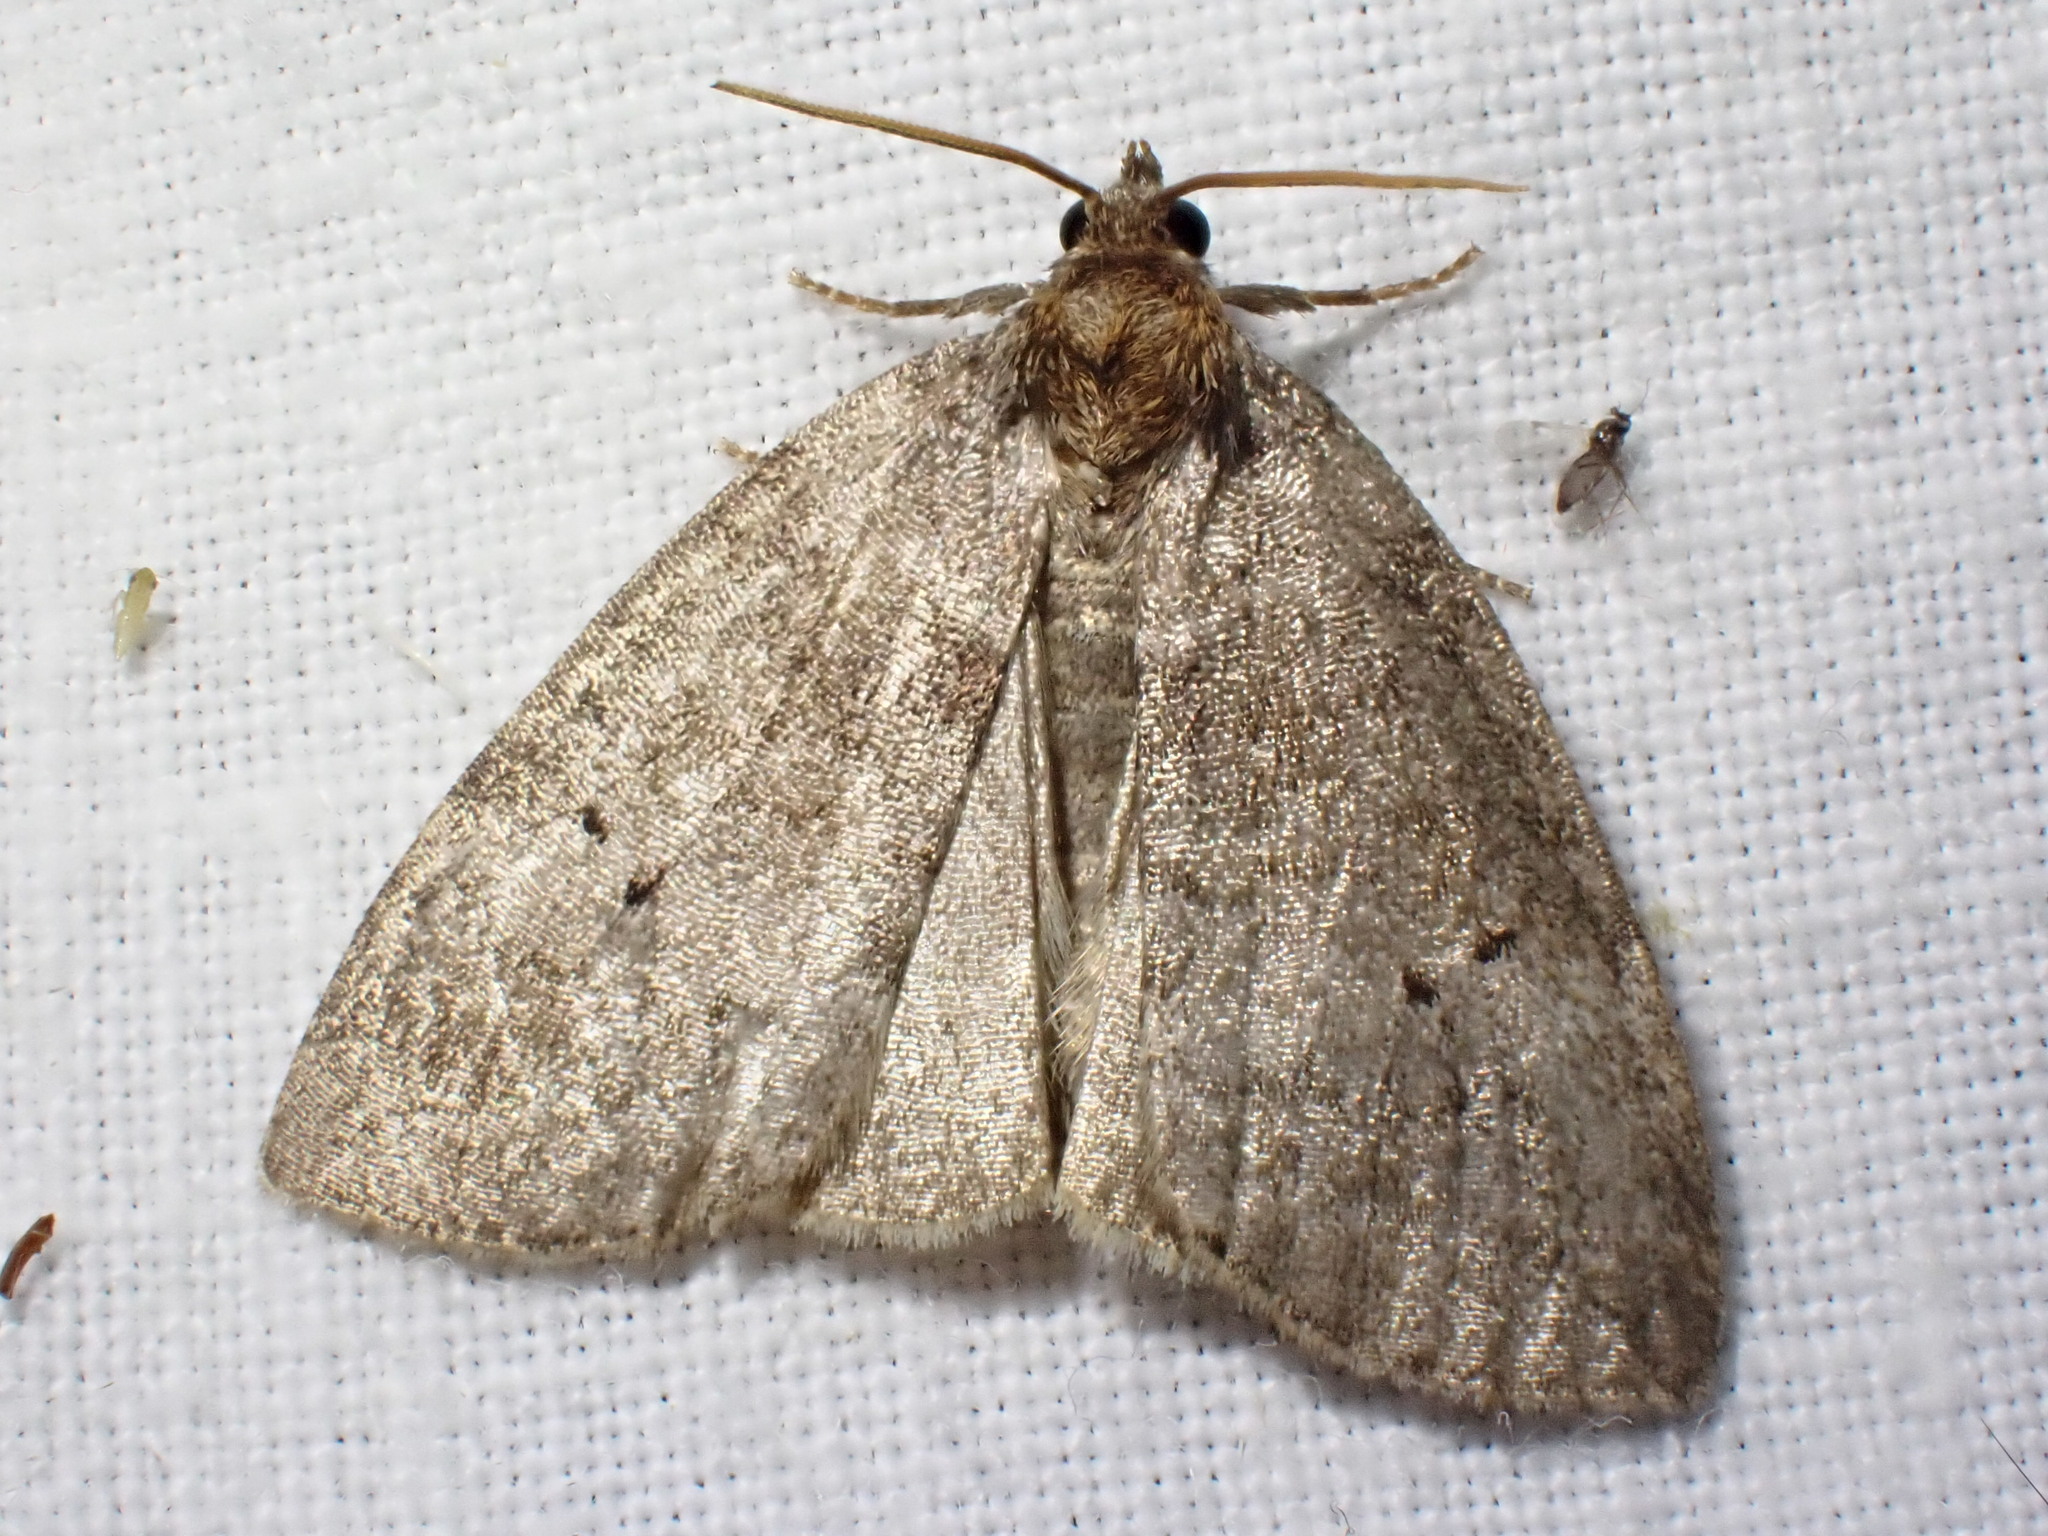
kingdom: Animalia
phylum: Arthropoda
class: Insecta
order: Lepidoptera
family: Drepanidae
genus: Ochropacha
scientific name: Ochropacha duplaris
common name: Common lutestring
